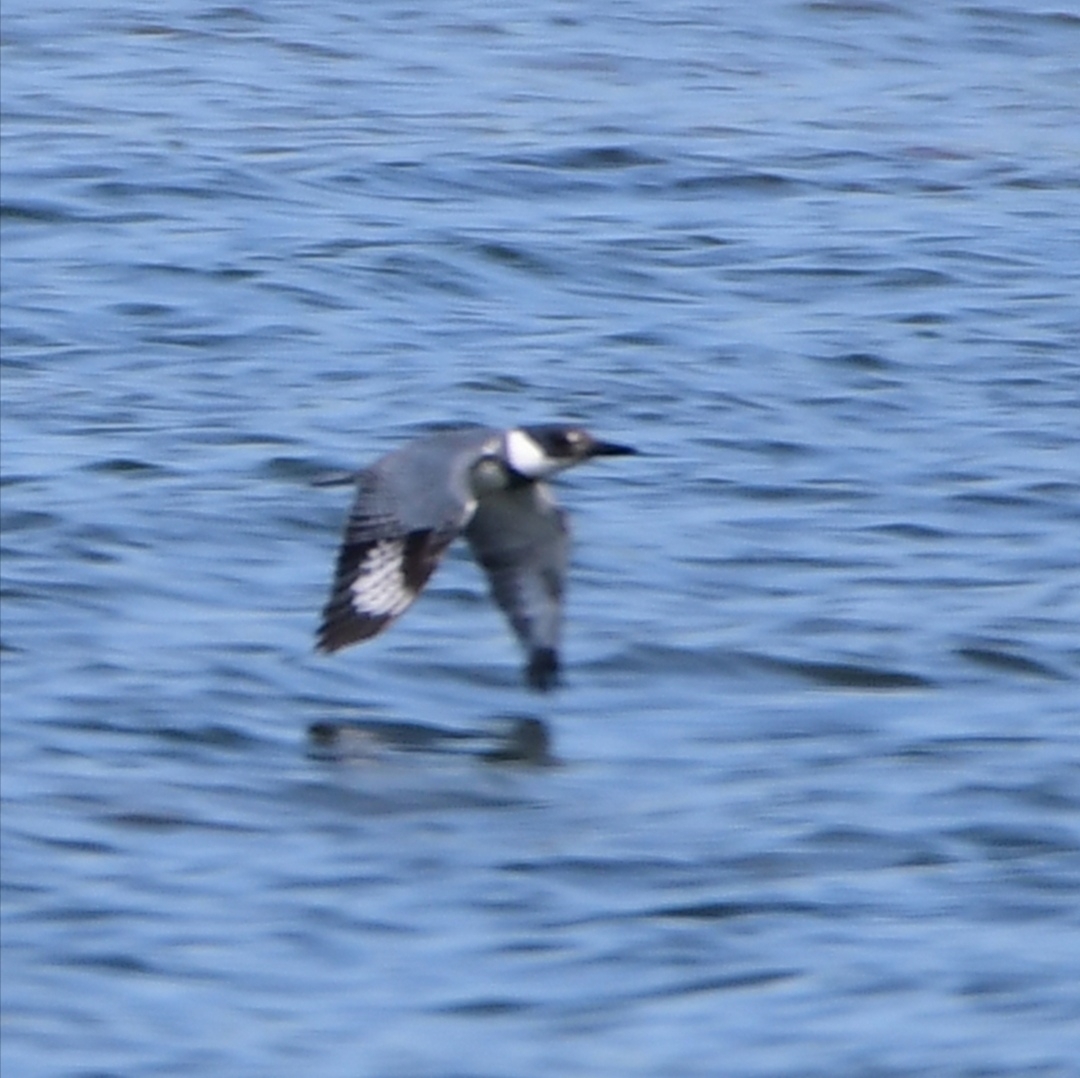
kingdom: Animalia
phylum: Chordata
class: Aves
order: Coraciiformes
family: Alcedinidae
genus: Megaceryle
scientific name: Megaceryle alcyon
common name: Belted kingfisher
